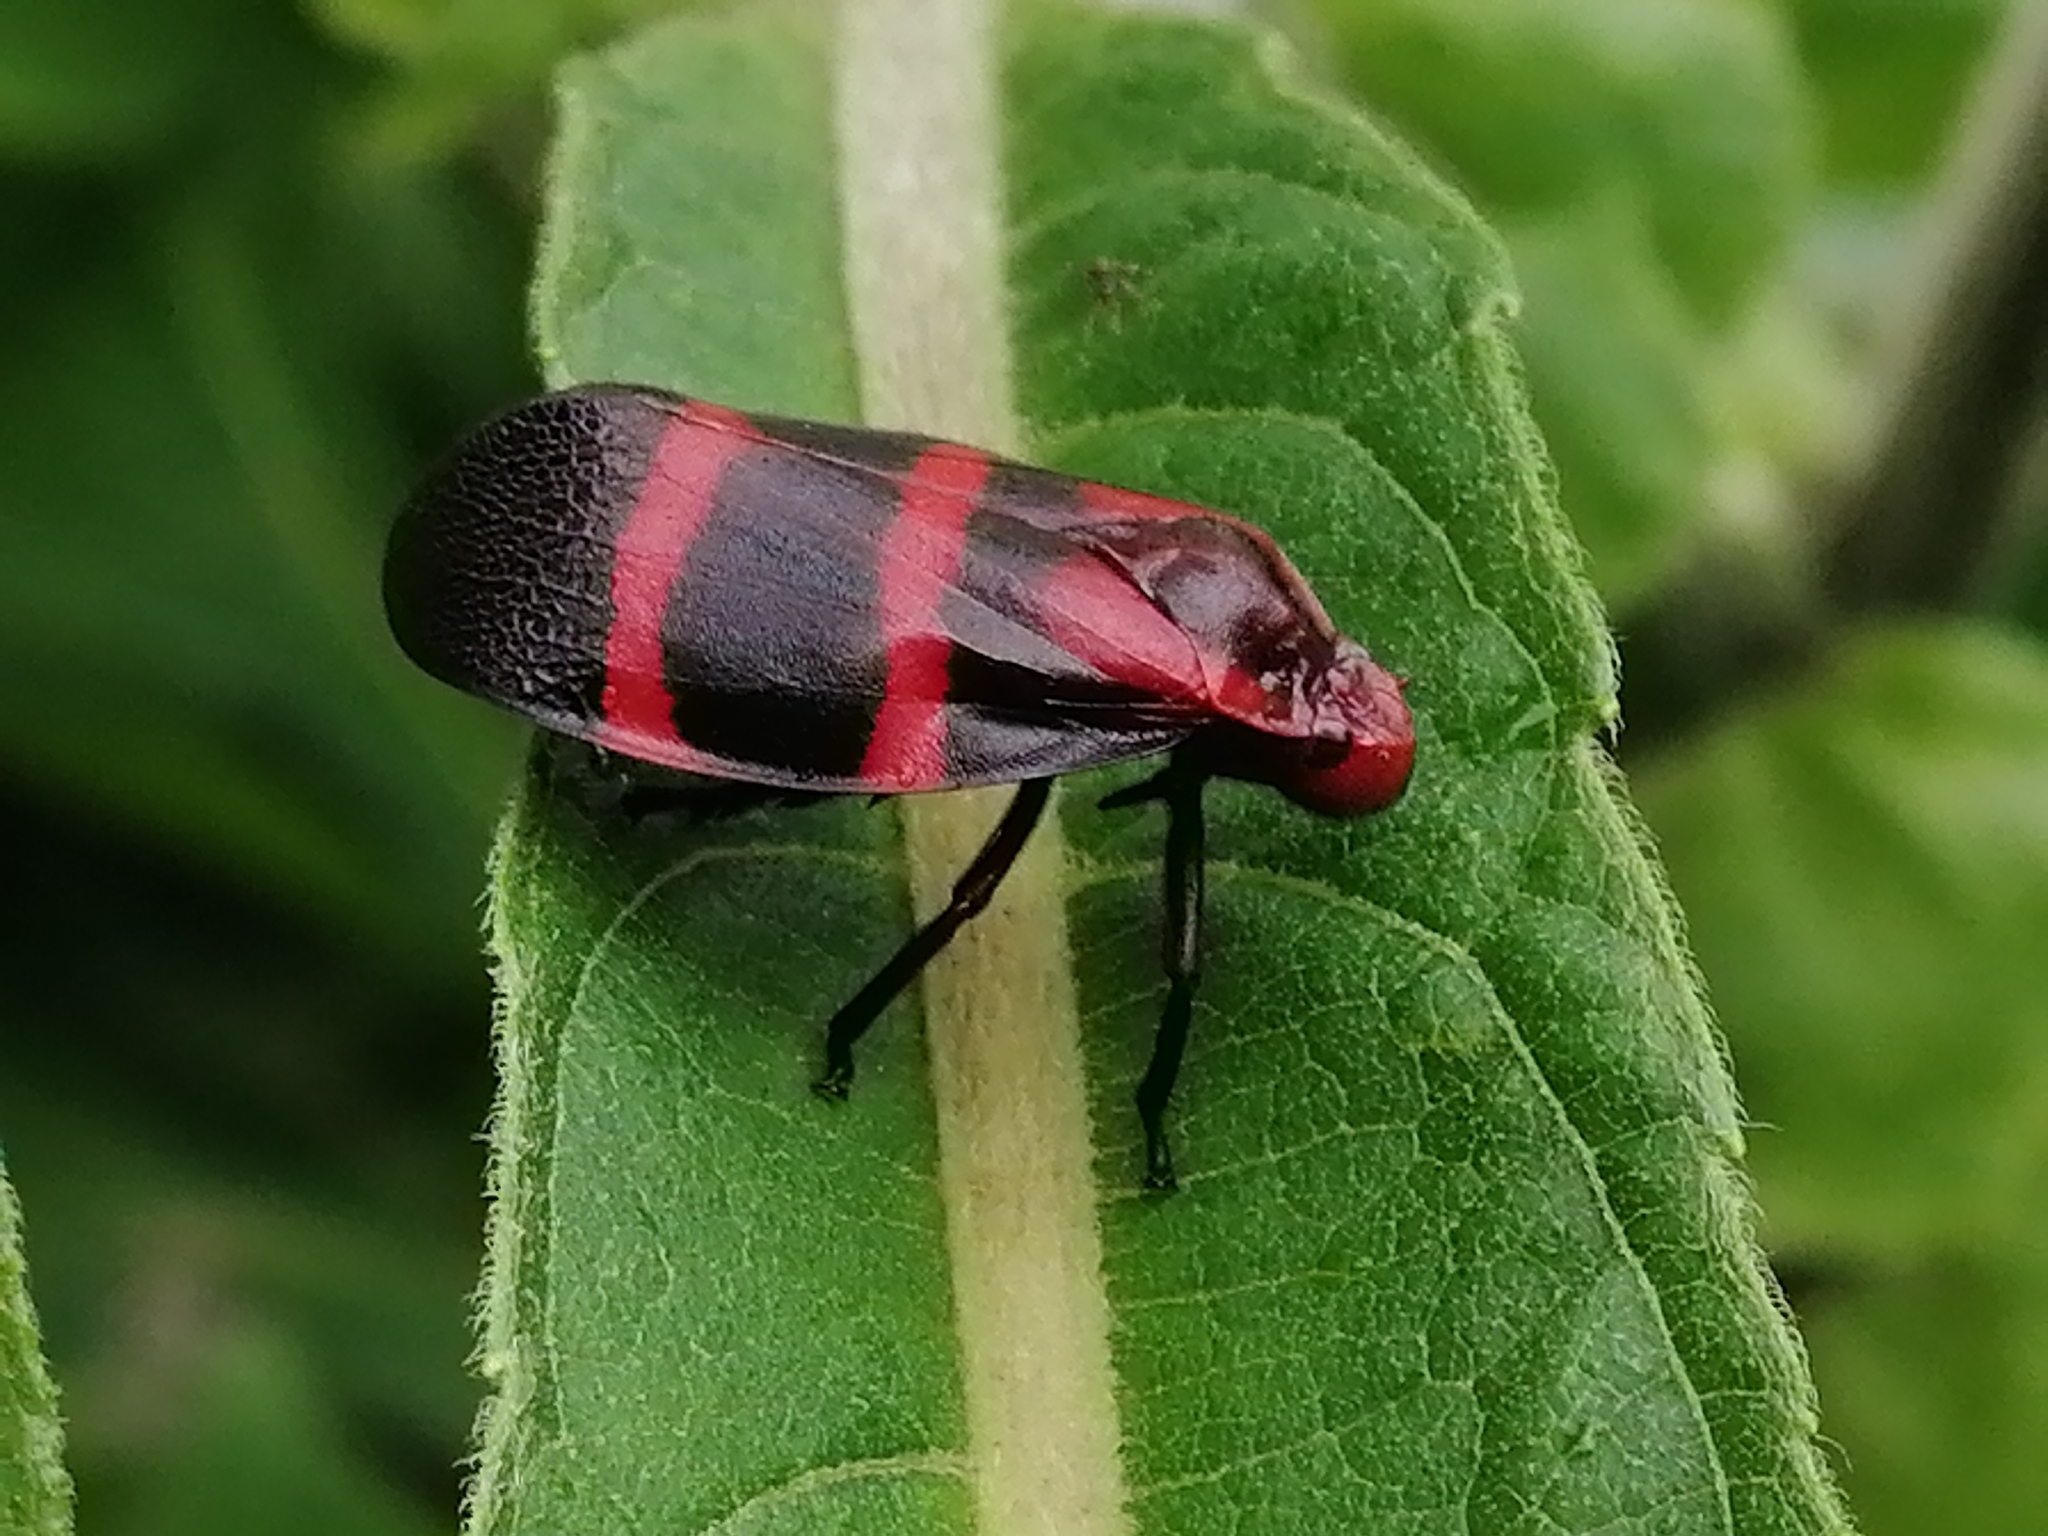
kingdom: Animalia
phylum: Arthropoda
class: Insecta
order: Hemiptera
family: Cercopidae
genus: Huaina
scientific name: Huaina inca
